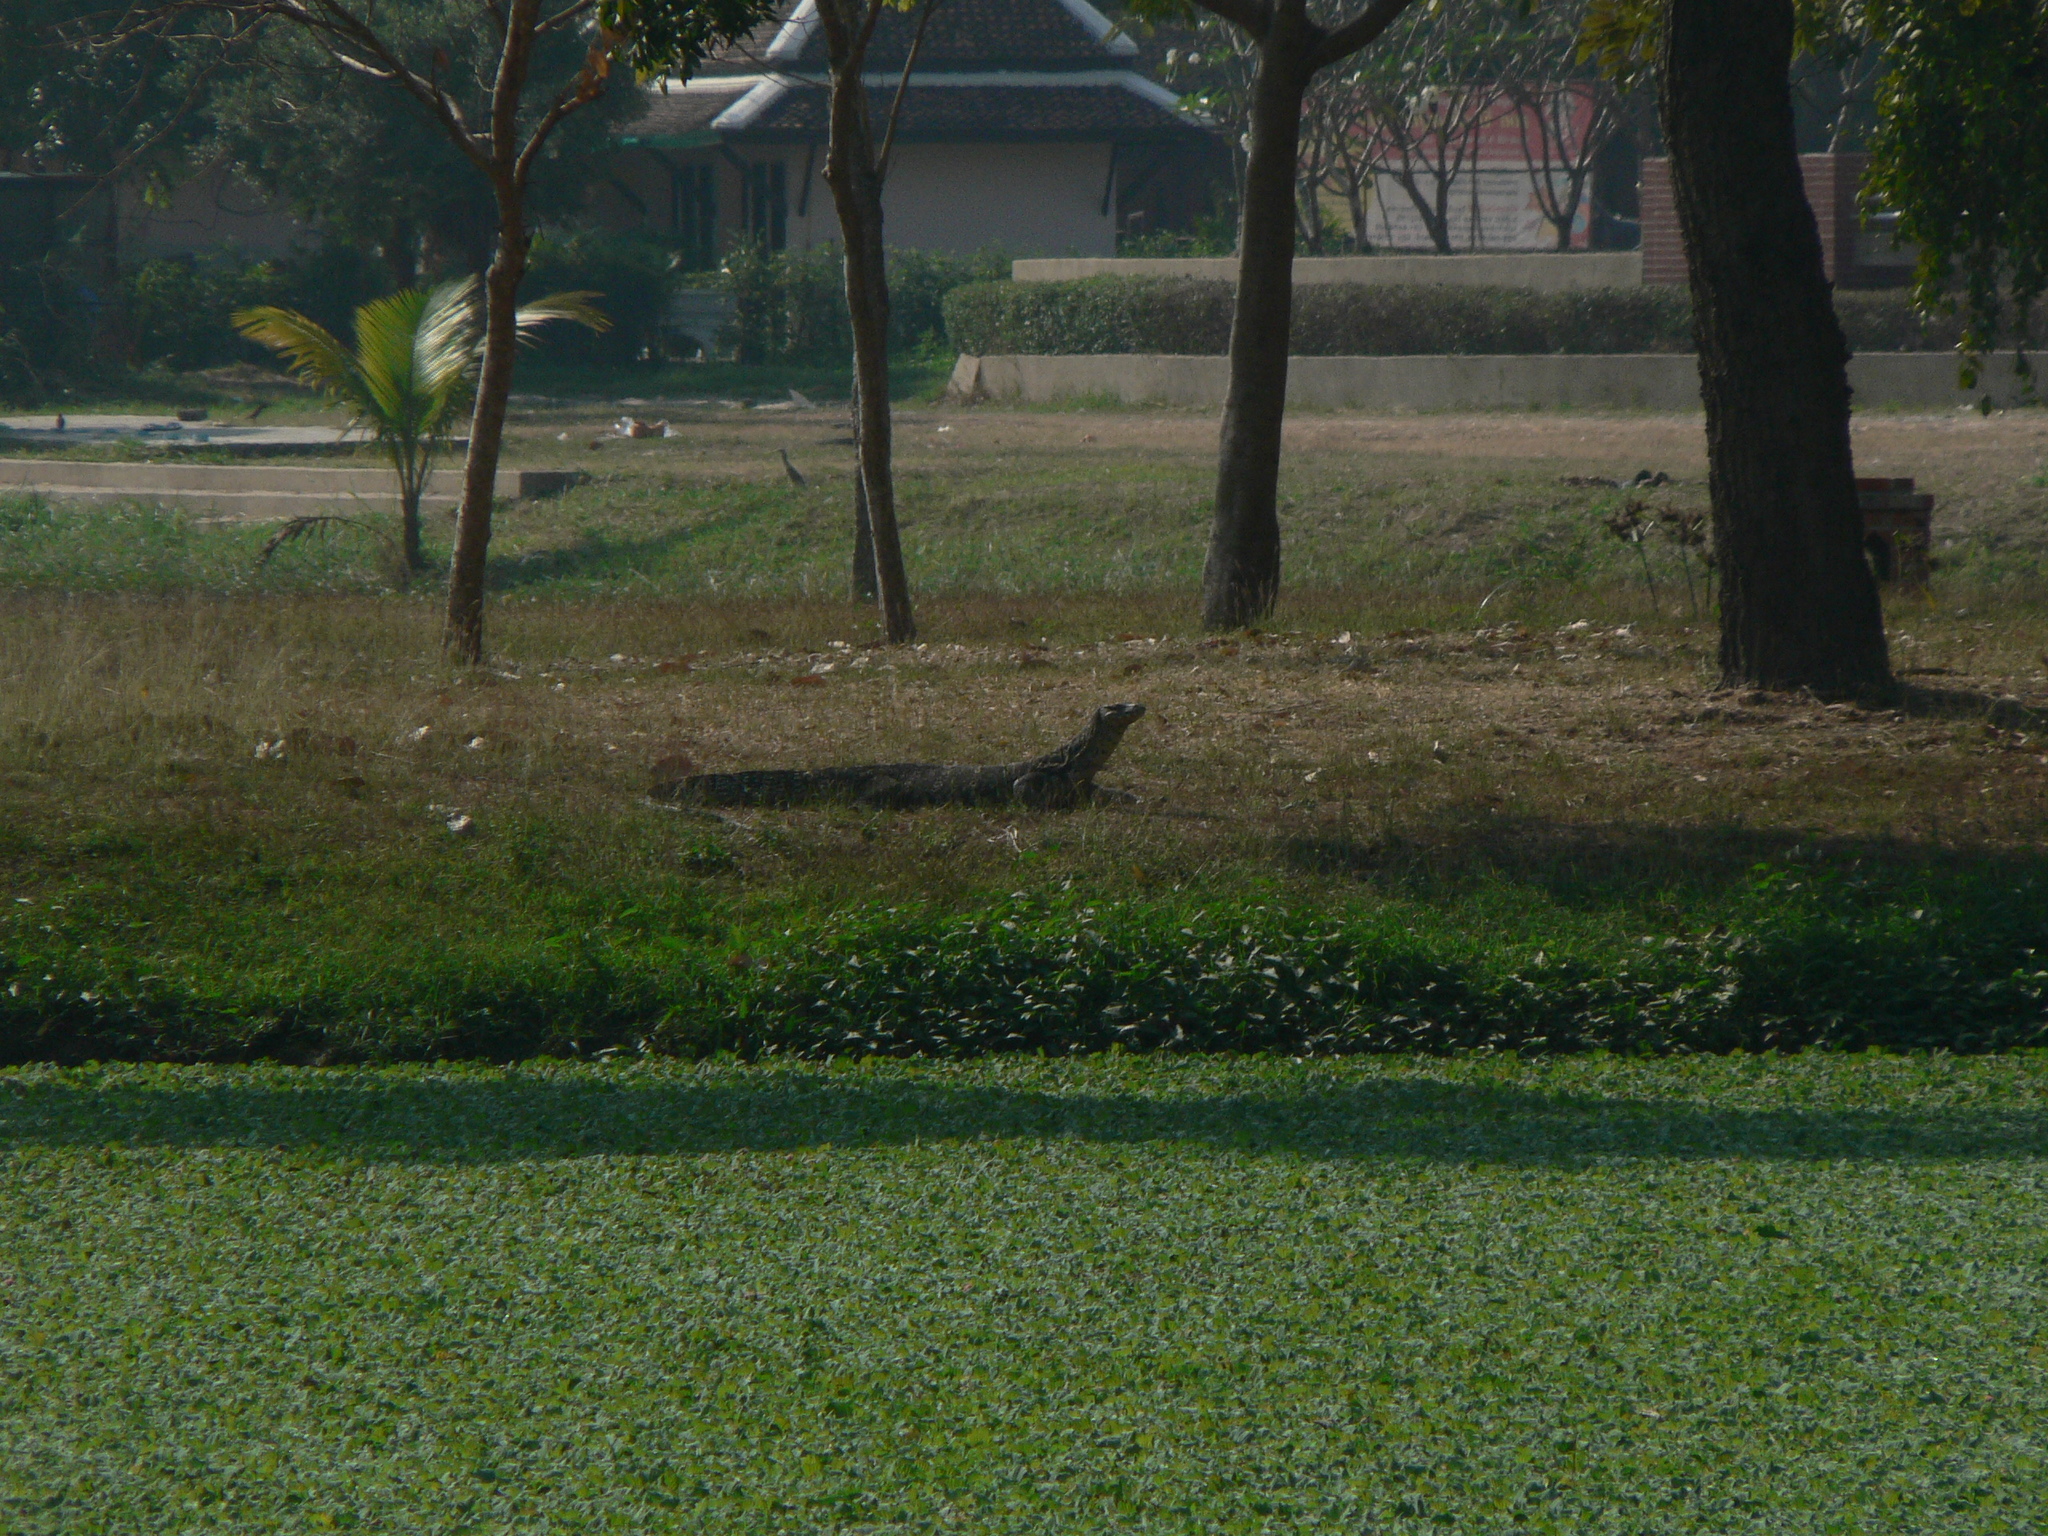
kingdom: Animalia
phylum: Chordata
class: Squamata
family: Varanidae
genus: Varanus
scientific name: Varanus salvator
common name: Common water monitor
